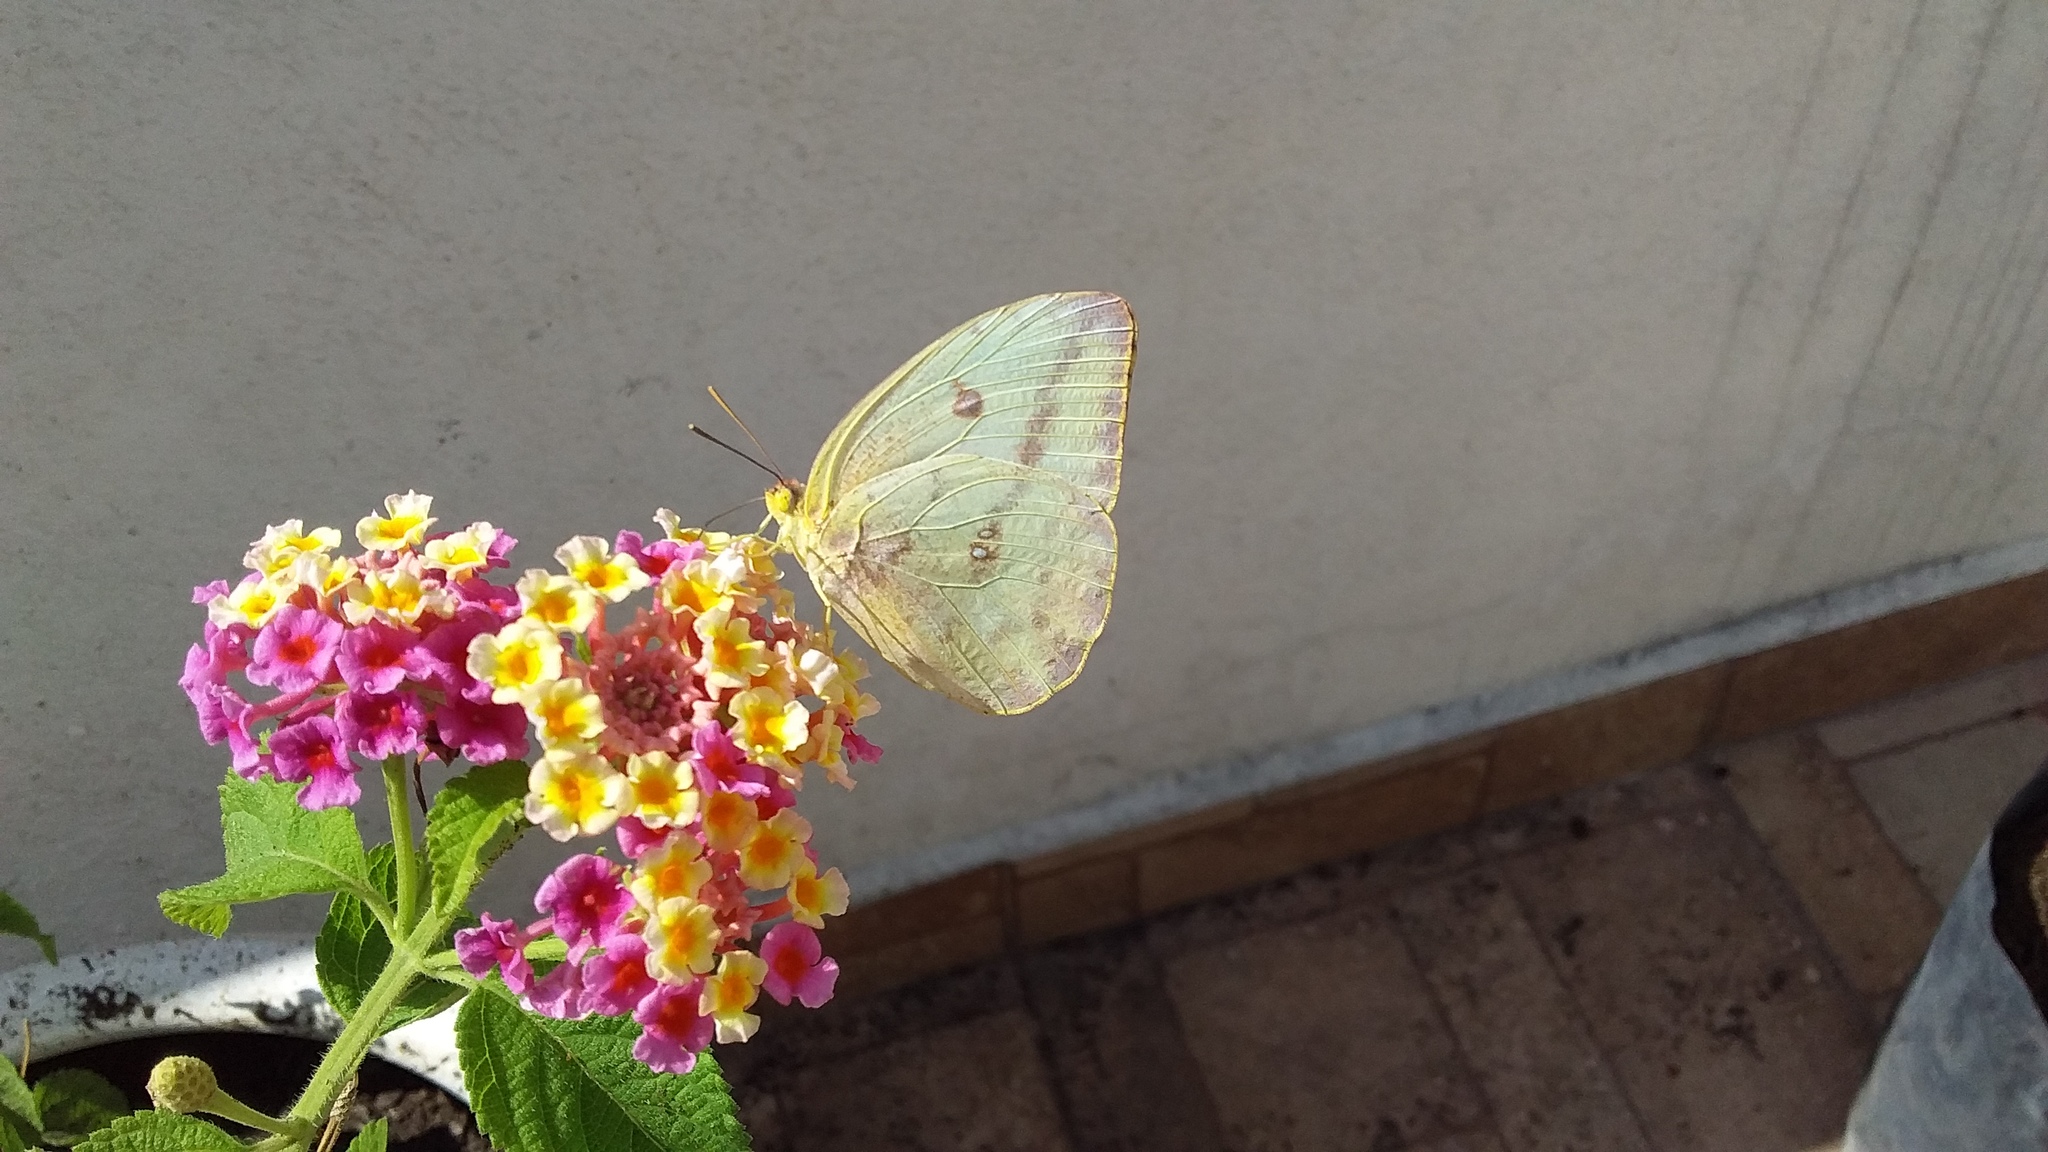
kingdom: Animalia
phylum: Arthropoda
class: Insecta
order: Lepidoptera
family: Pieridae
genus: Phoebis
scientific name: Phoebis agarithe
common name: Large orange sulphur
